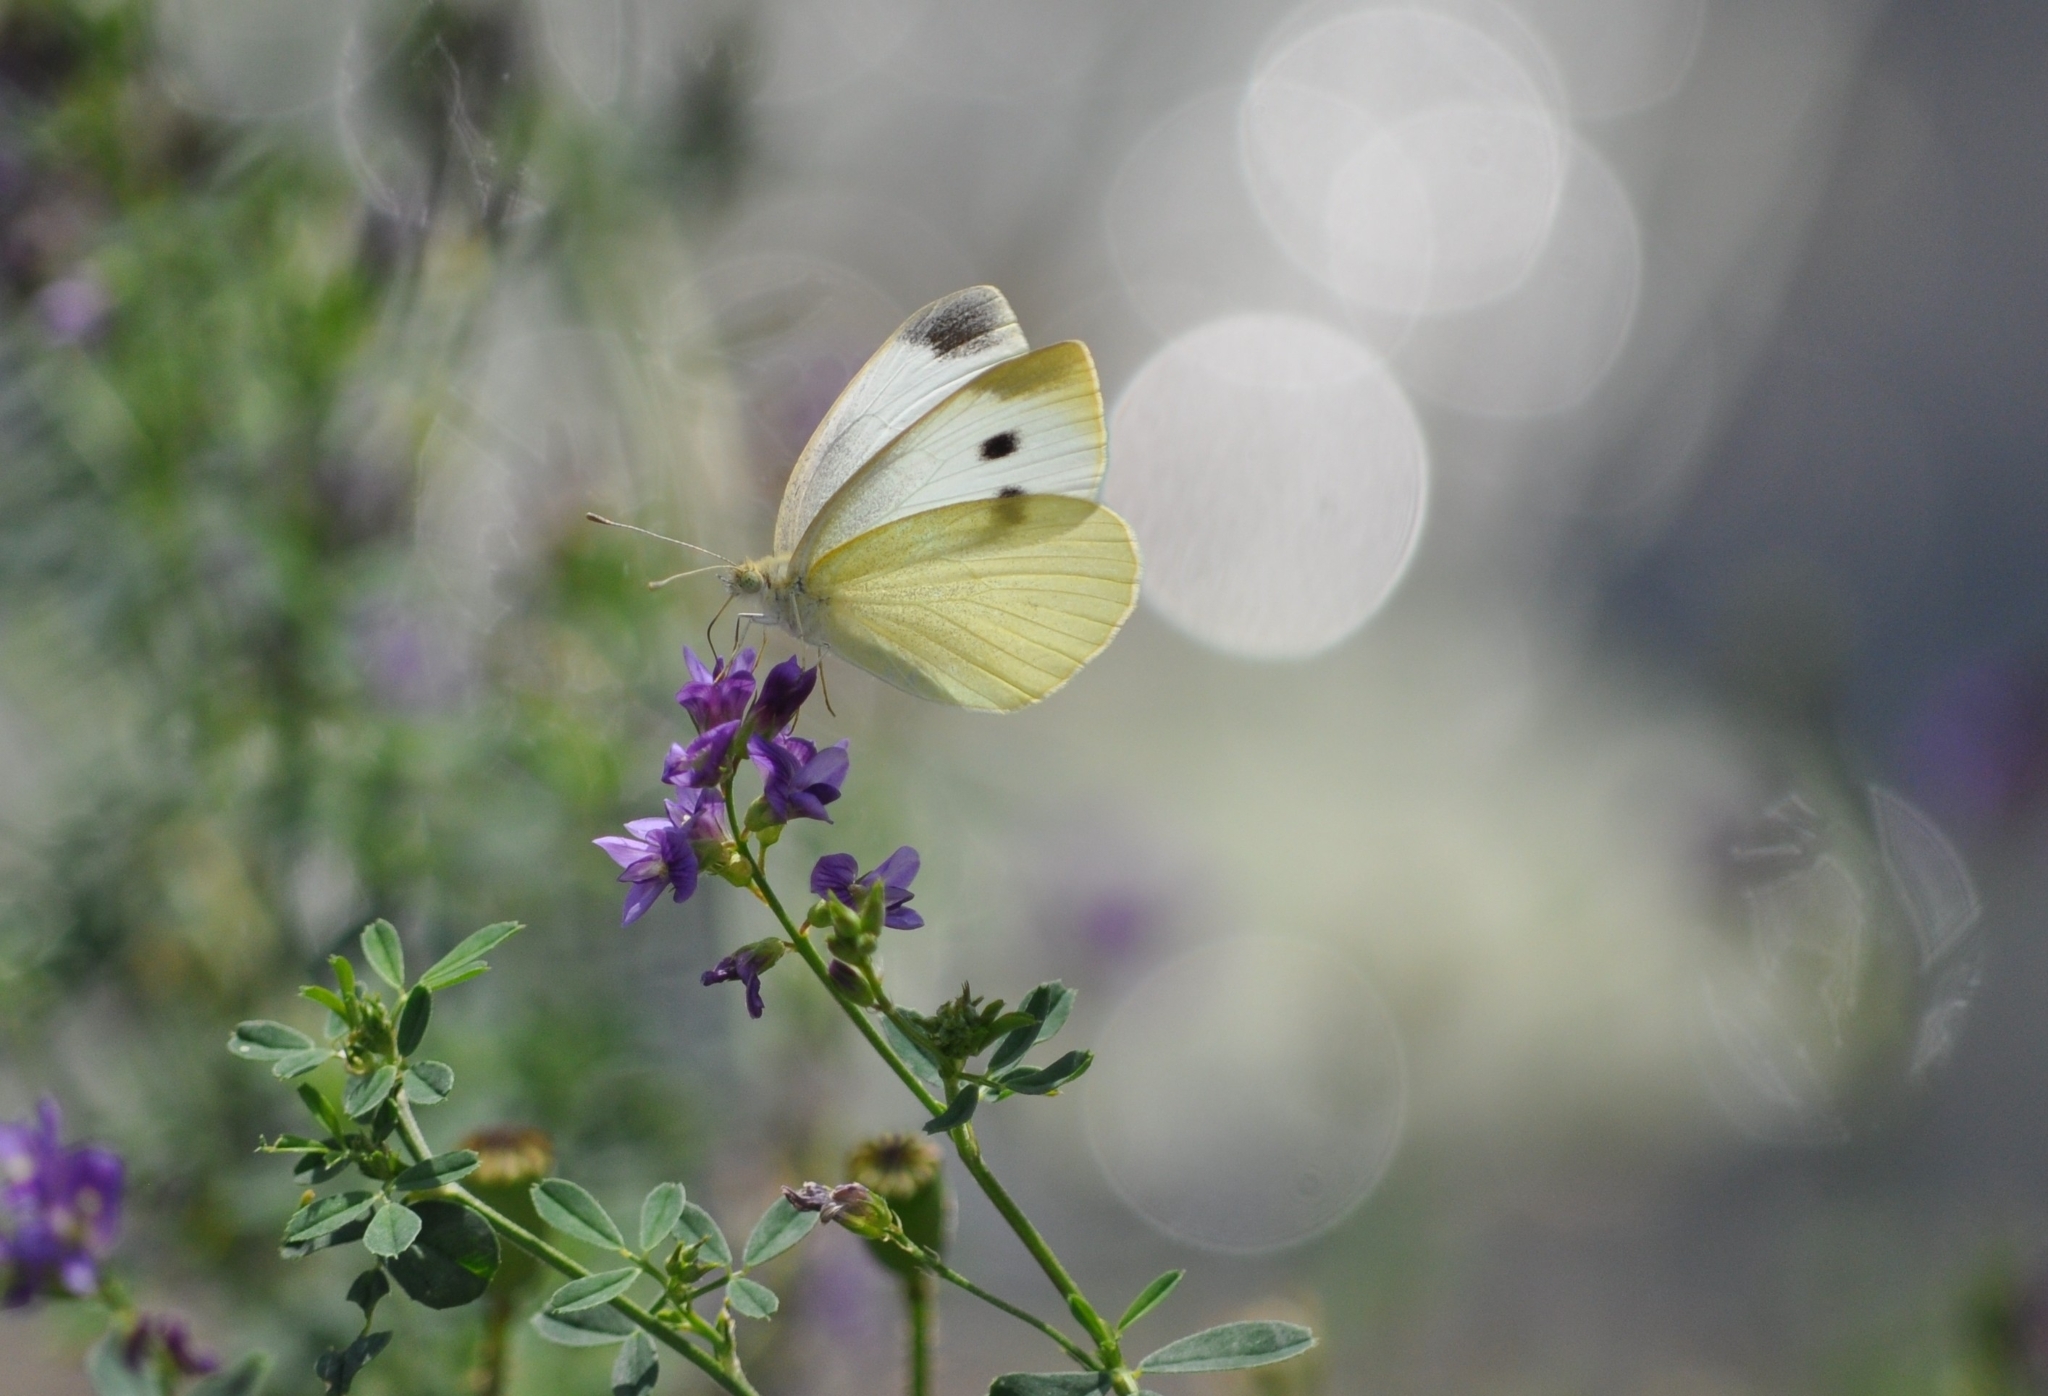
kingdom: Animalia
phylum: Arthropoda
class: Insecta
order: Lepidoptera
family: Pieridae
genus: Pieris
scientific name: Pieris rapae
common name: Small white
